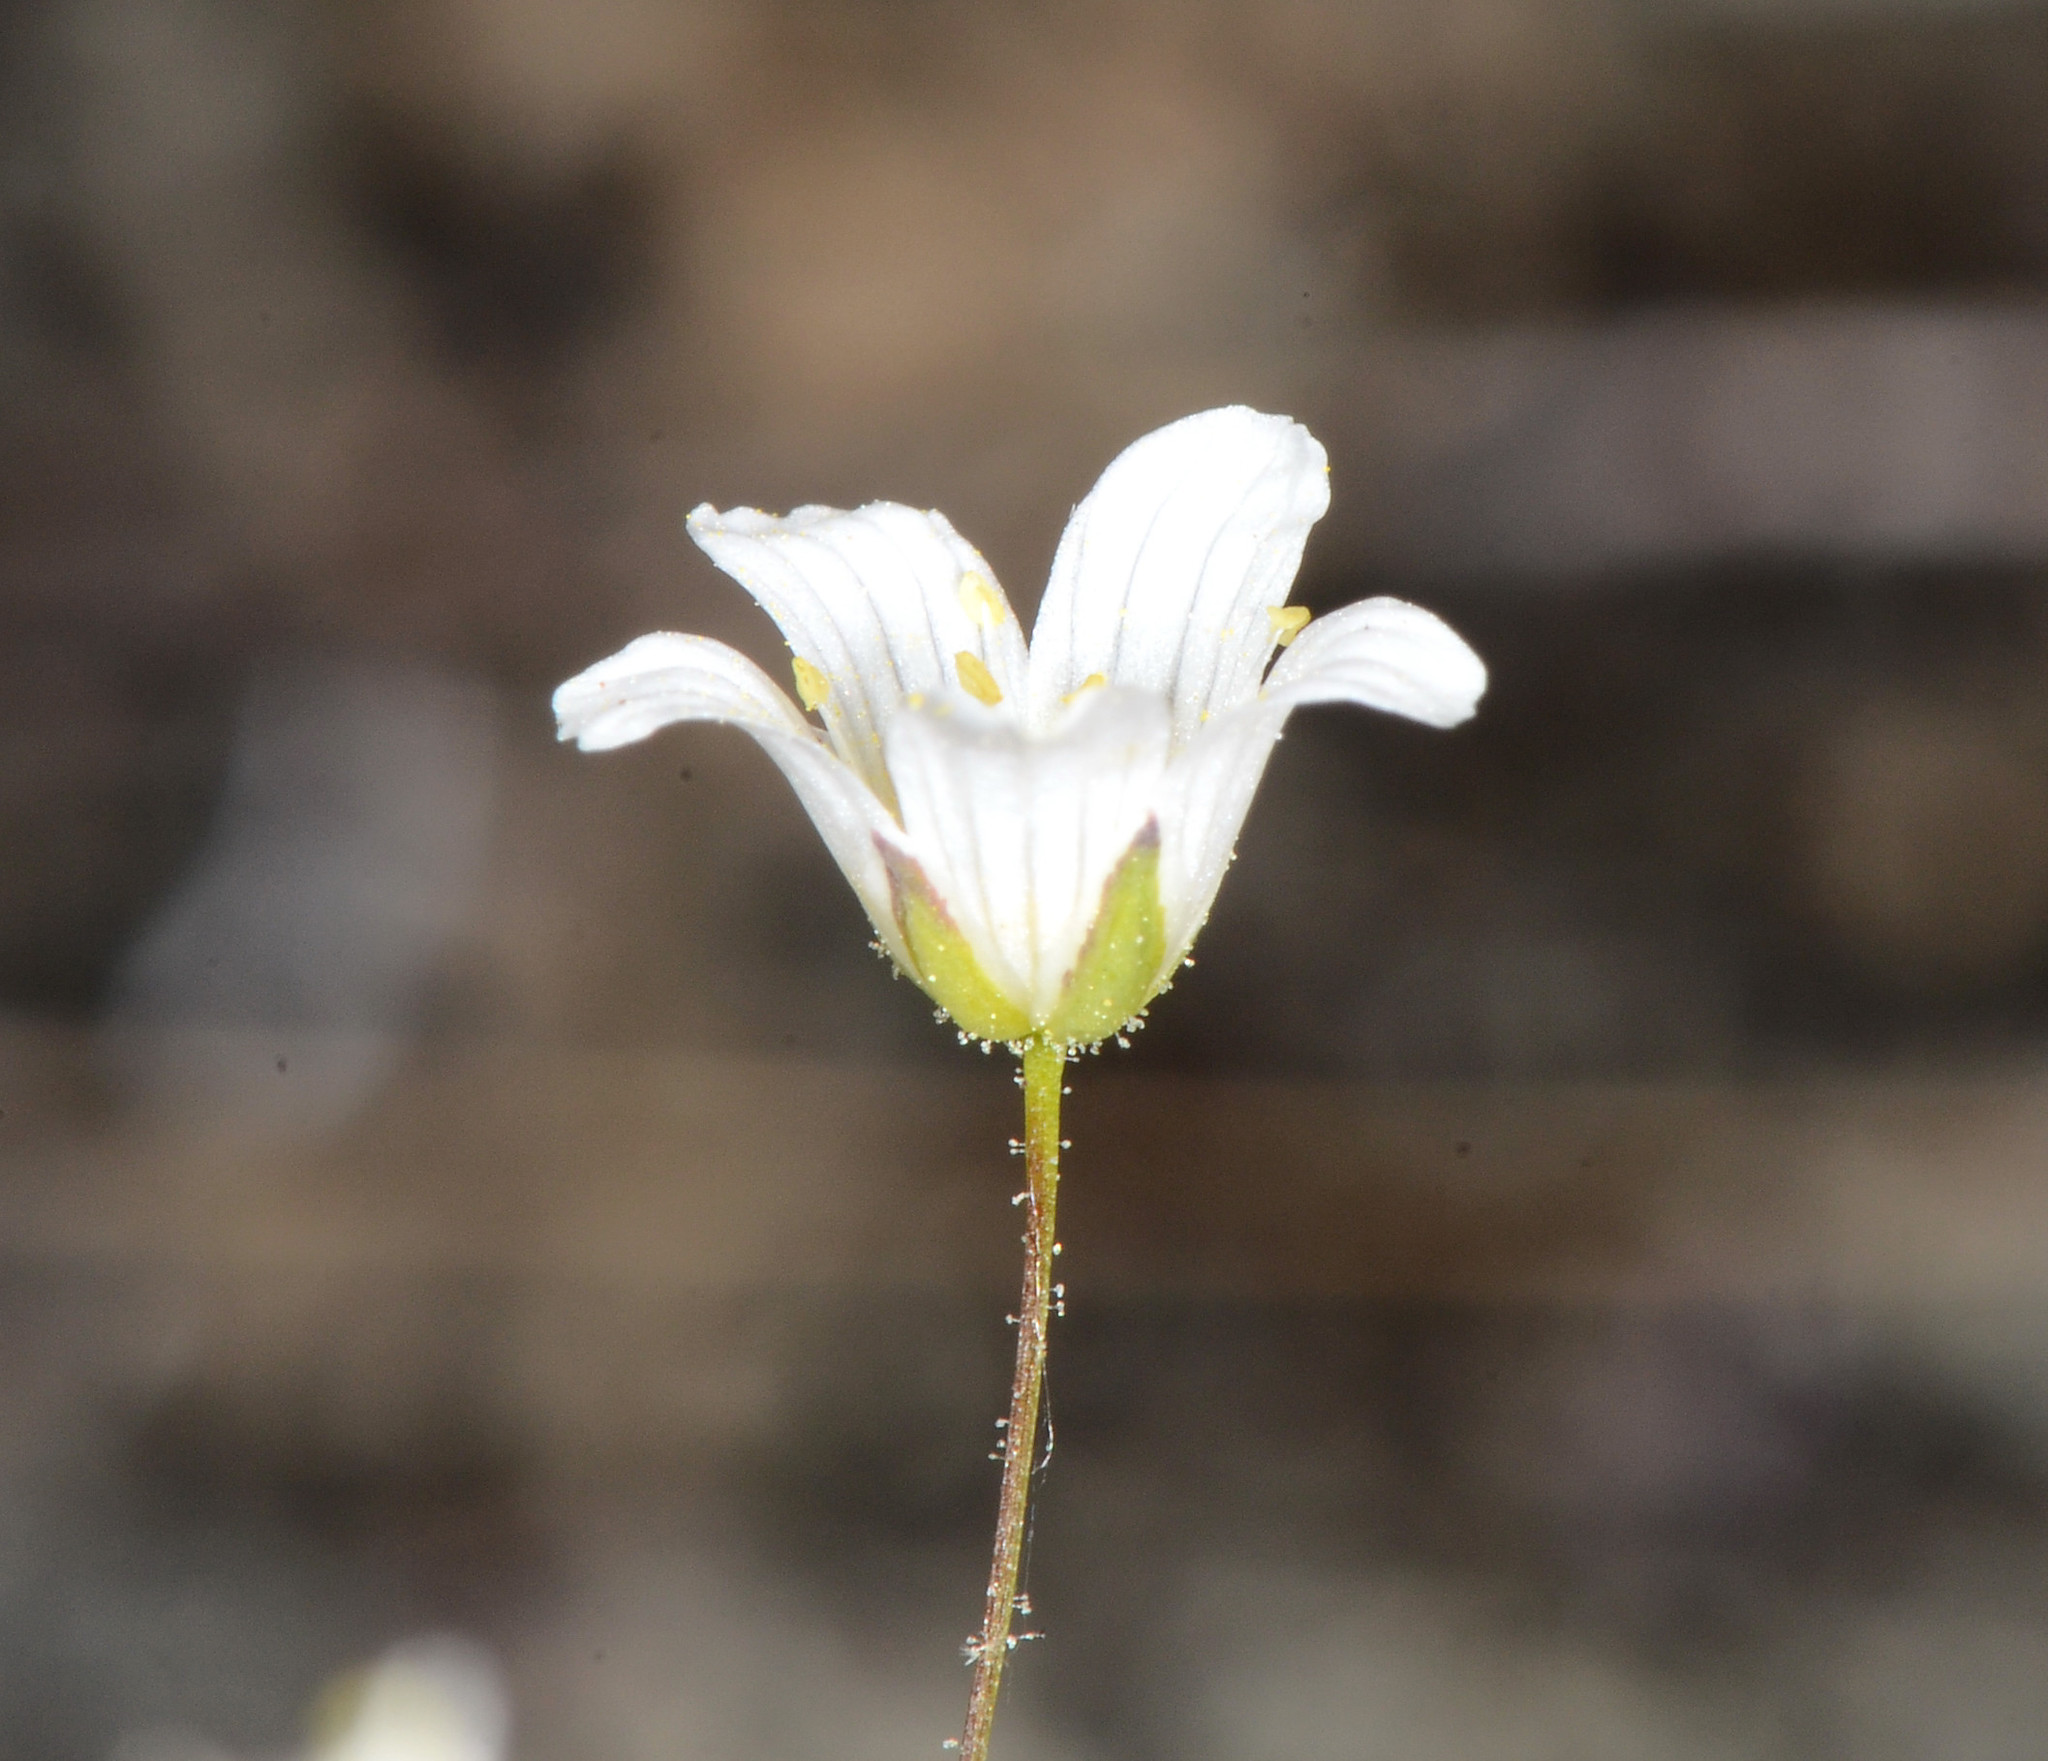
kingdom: Plantae
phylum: Tracheophyta
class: Magnoliopsida
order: Caryophyllales
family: Caryophyllaceae
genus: Sabulina
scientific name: Sabulina douglasii
